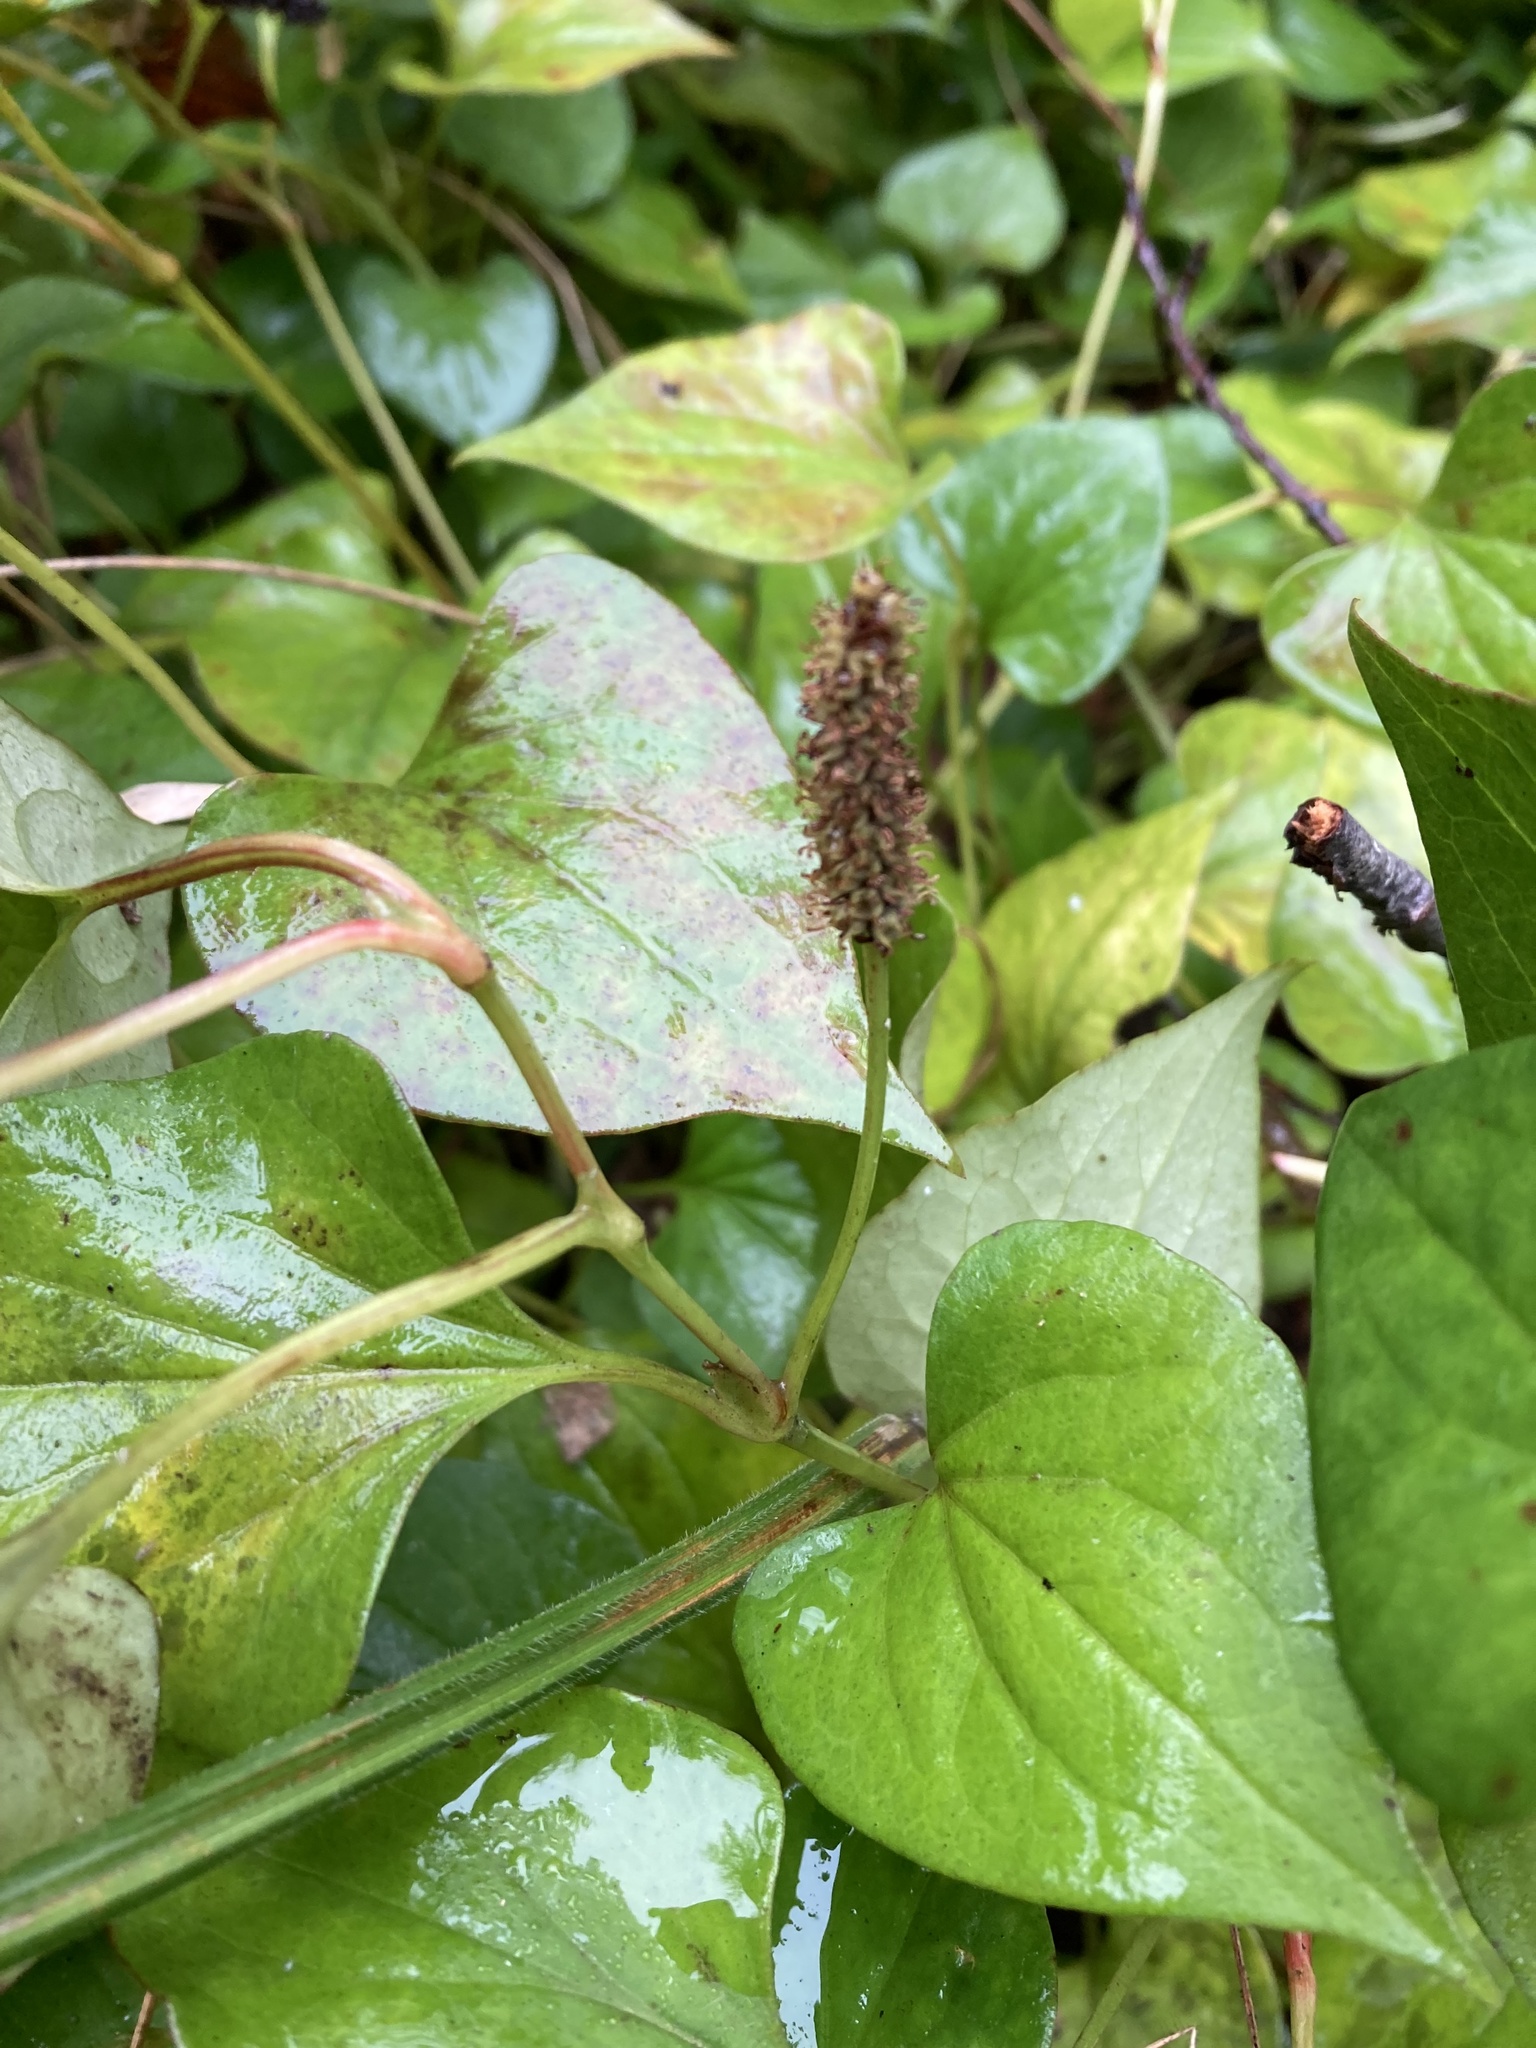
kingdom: Plantae
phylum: Tracheophyta
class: Magnoliopsida
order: Piperales
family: Saururaceae
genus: Houttuynia
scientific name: Houttuynia cordata
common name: Chameleon
